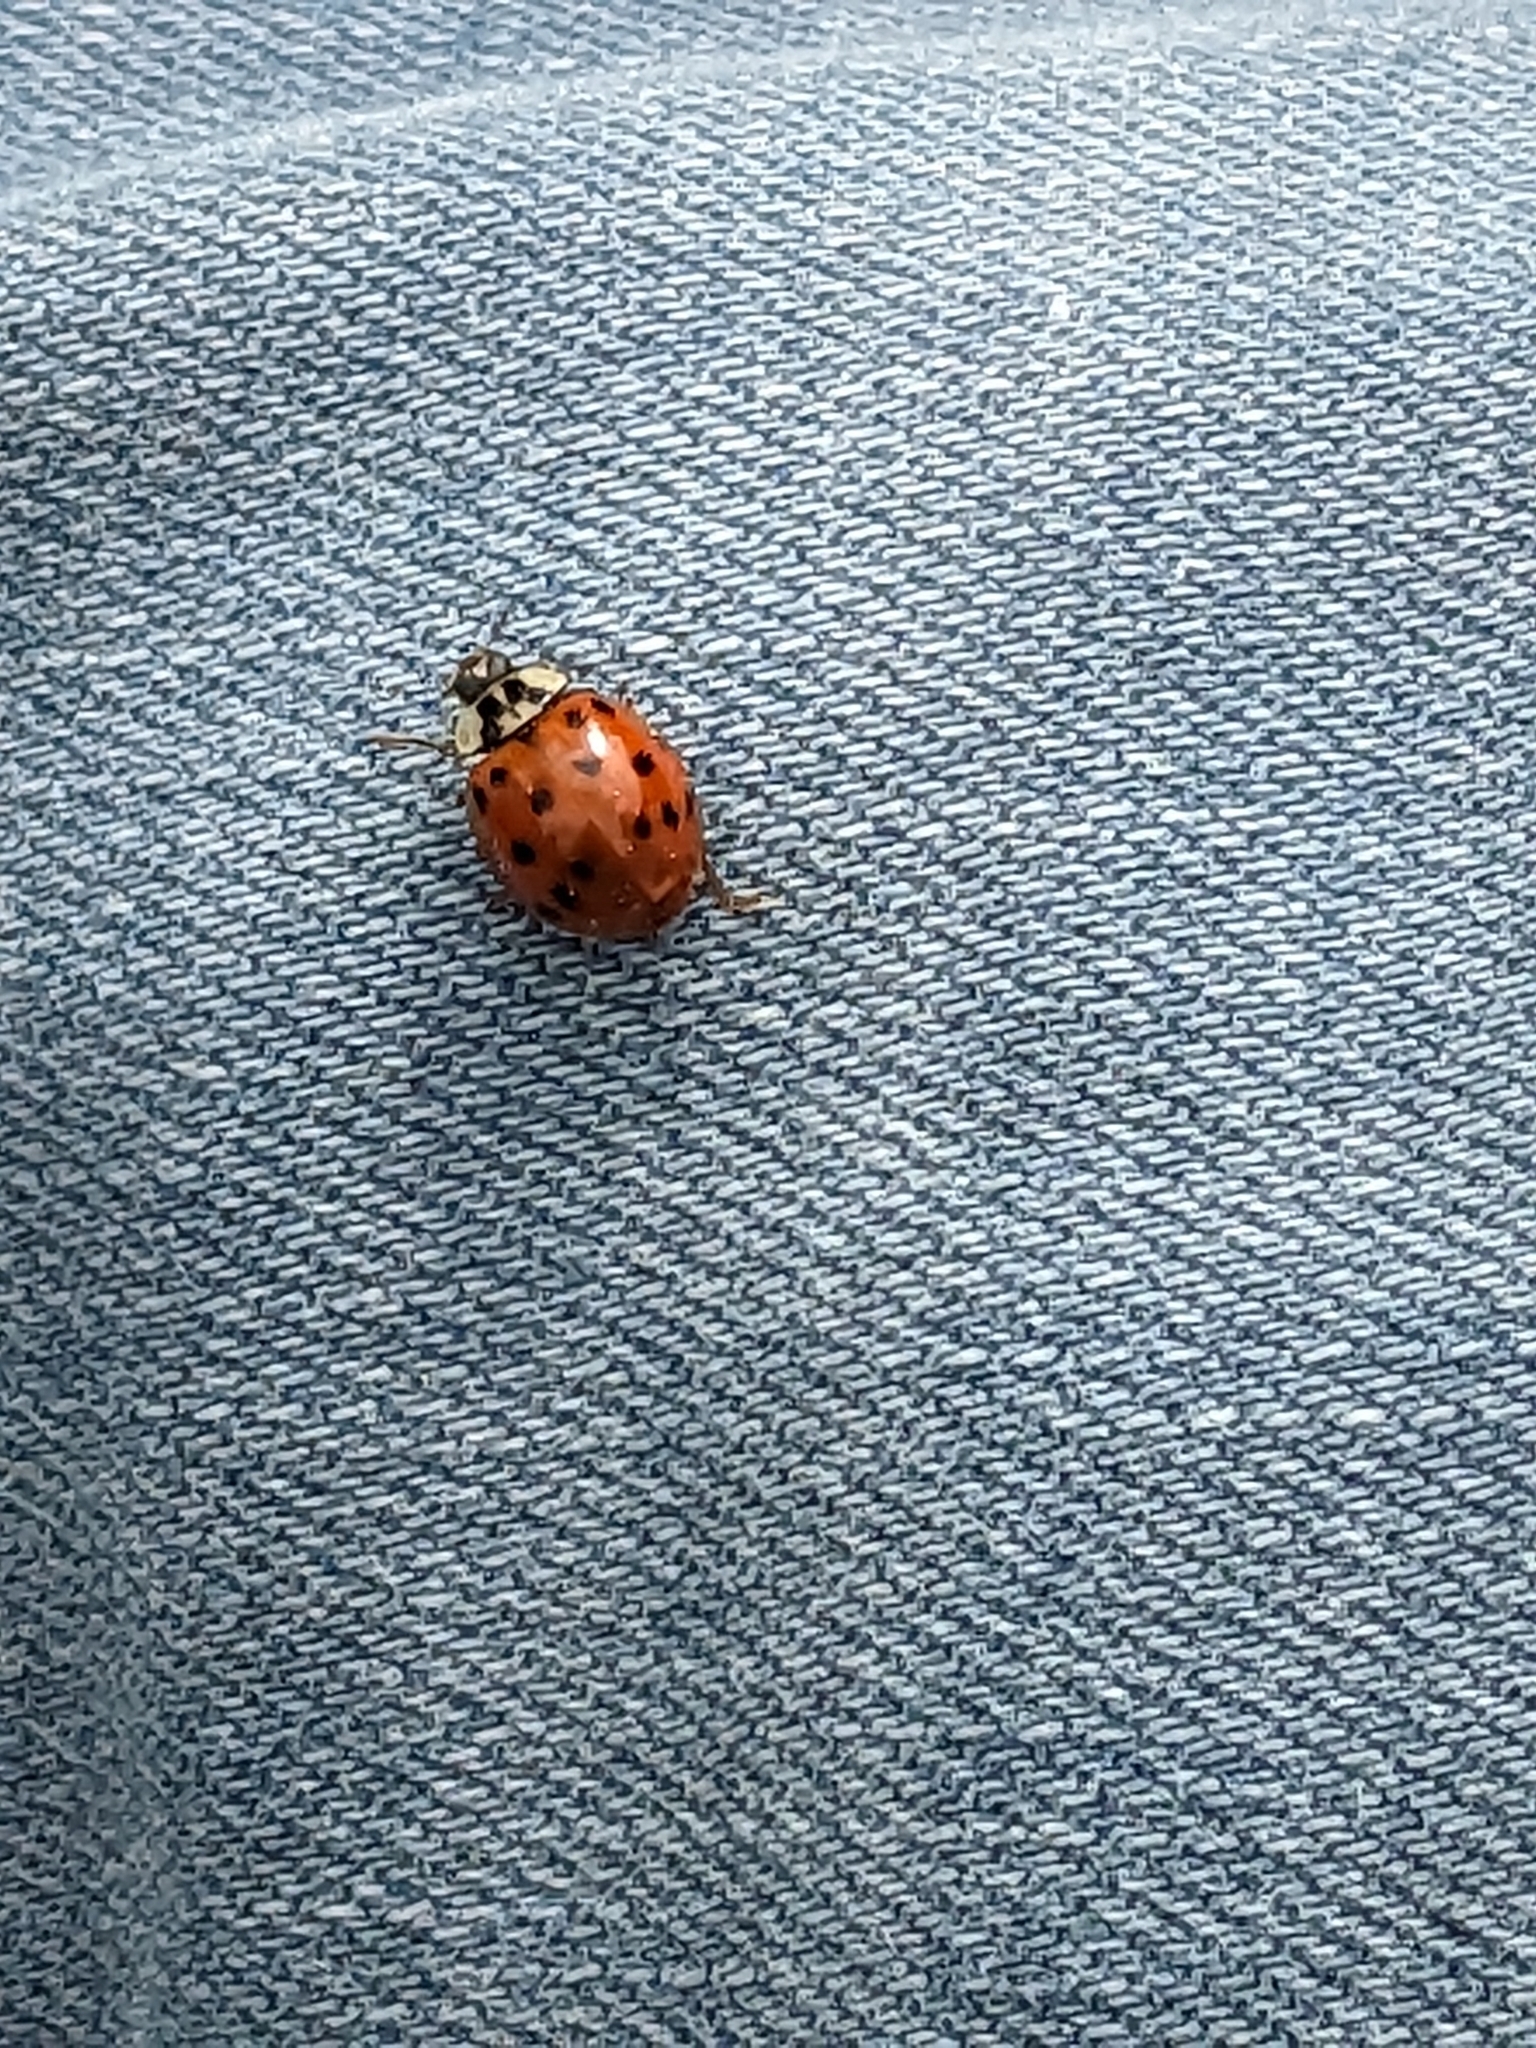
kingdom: Animalia
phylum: Arthropoda
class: Insecta
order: Coleoptera
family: Coccinellidae
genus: Harmonia
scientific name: Harmonia axyridis
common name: Harlequin ladybird
